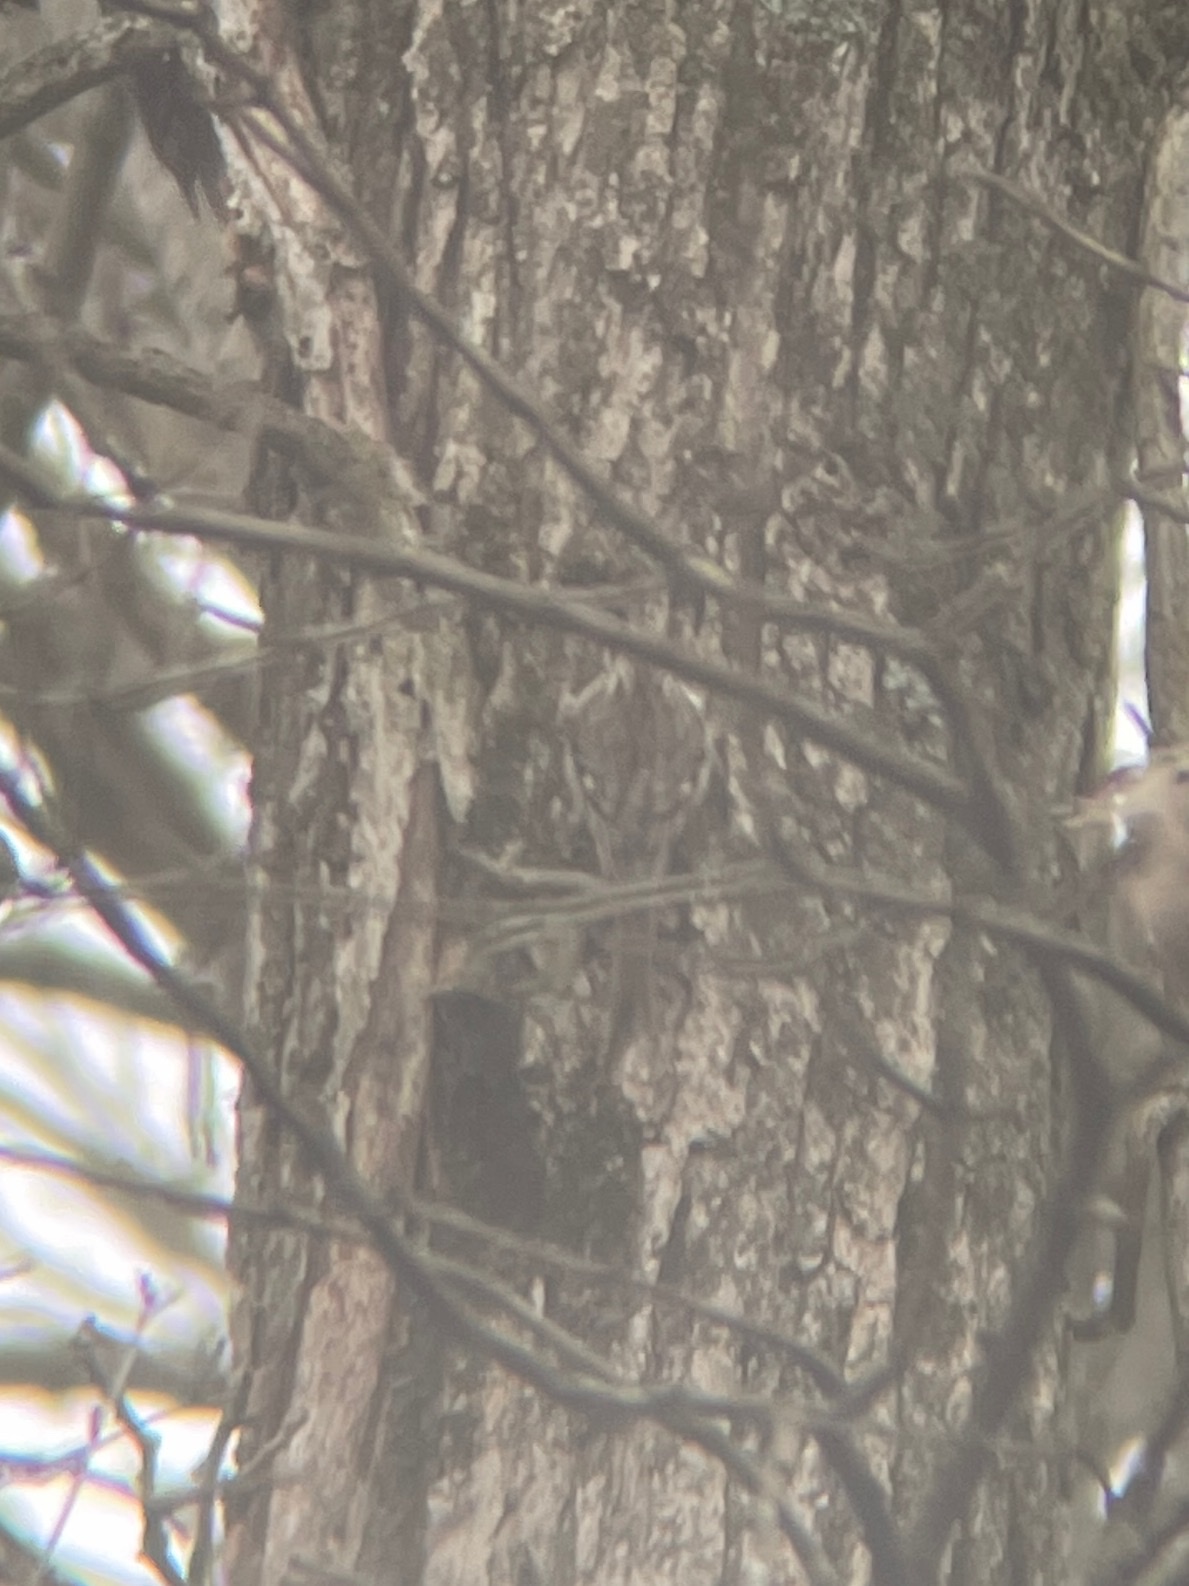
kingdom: Animalia
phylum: Chordata
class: Aves
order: Passeriformes
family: Certhiidae
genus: Certhia
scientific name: Certhia americana
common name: Brown creeper
